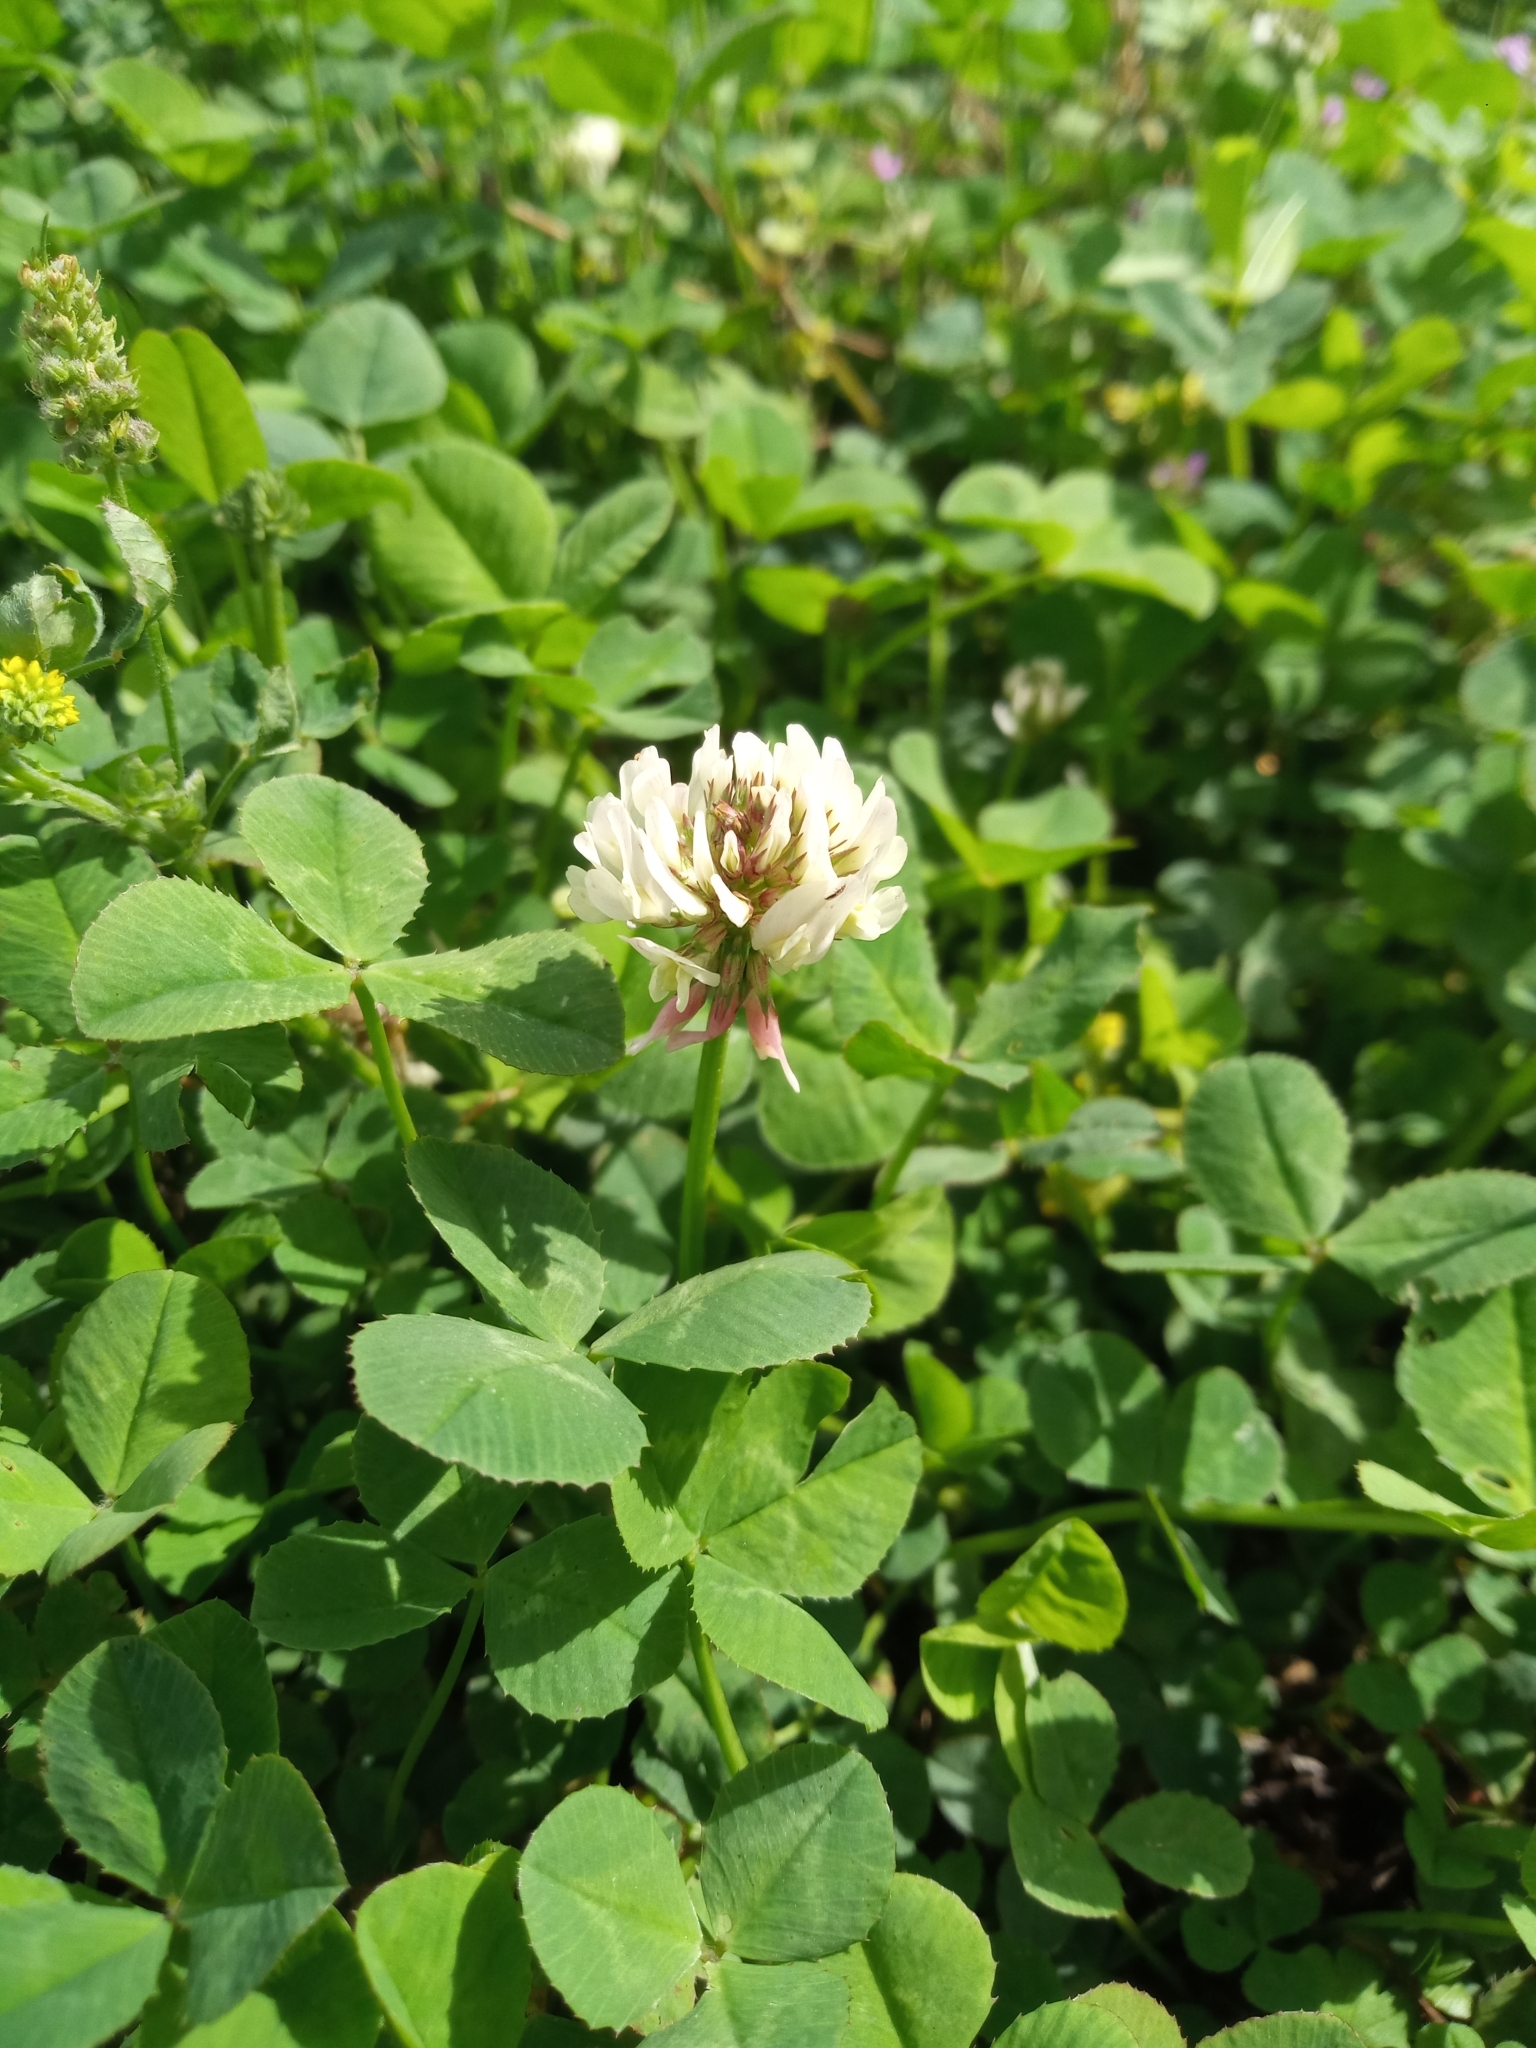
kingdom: Plantae
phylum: Tracheophyta
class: Magnoliopsida
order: Fabales
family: Fabaceae
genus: Trifolium
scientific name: Trifolium repens
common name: White clover
